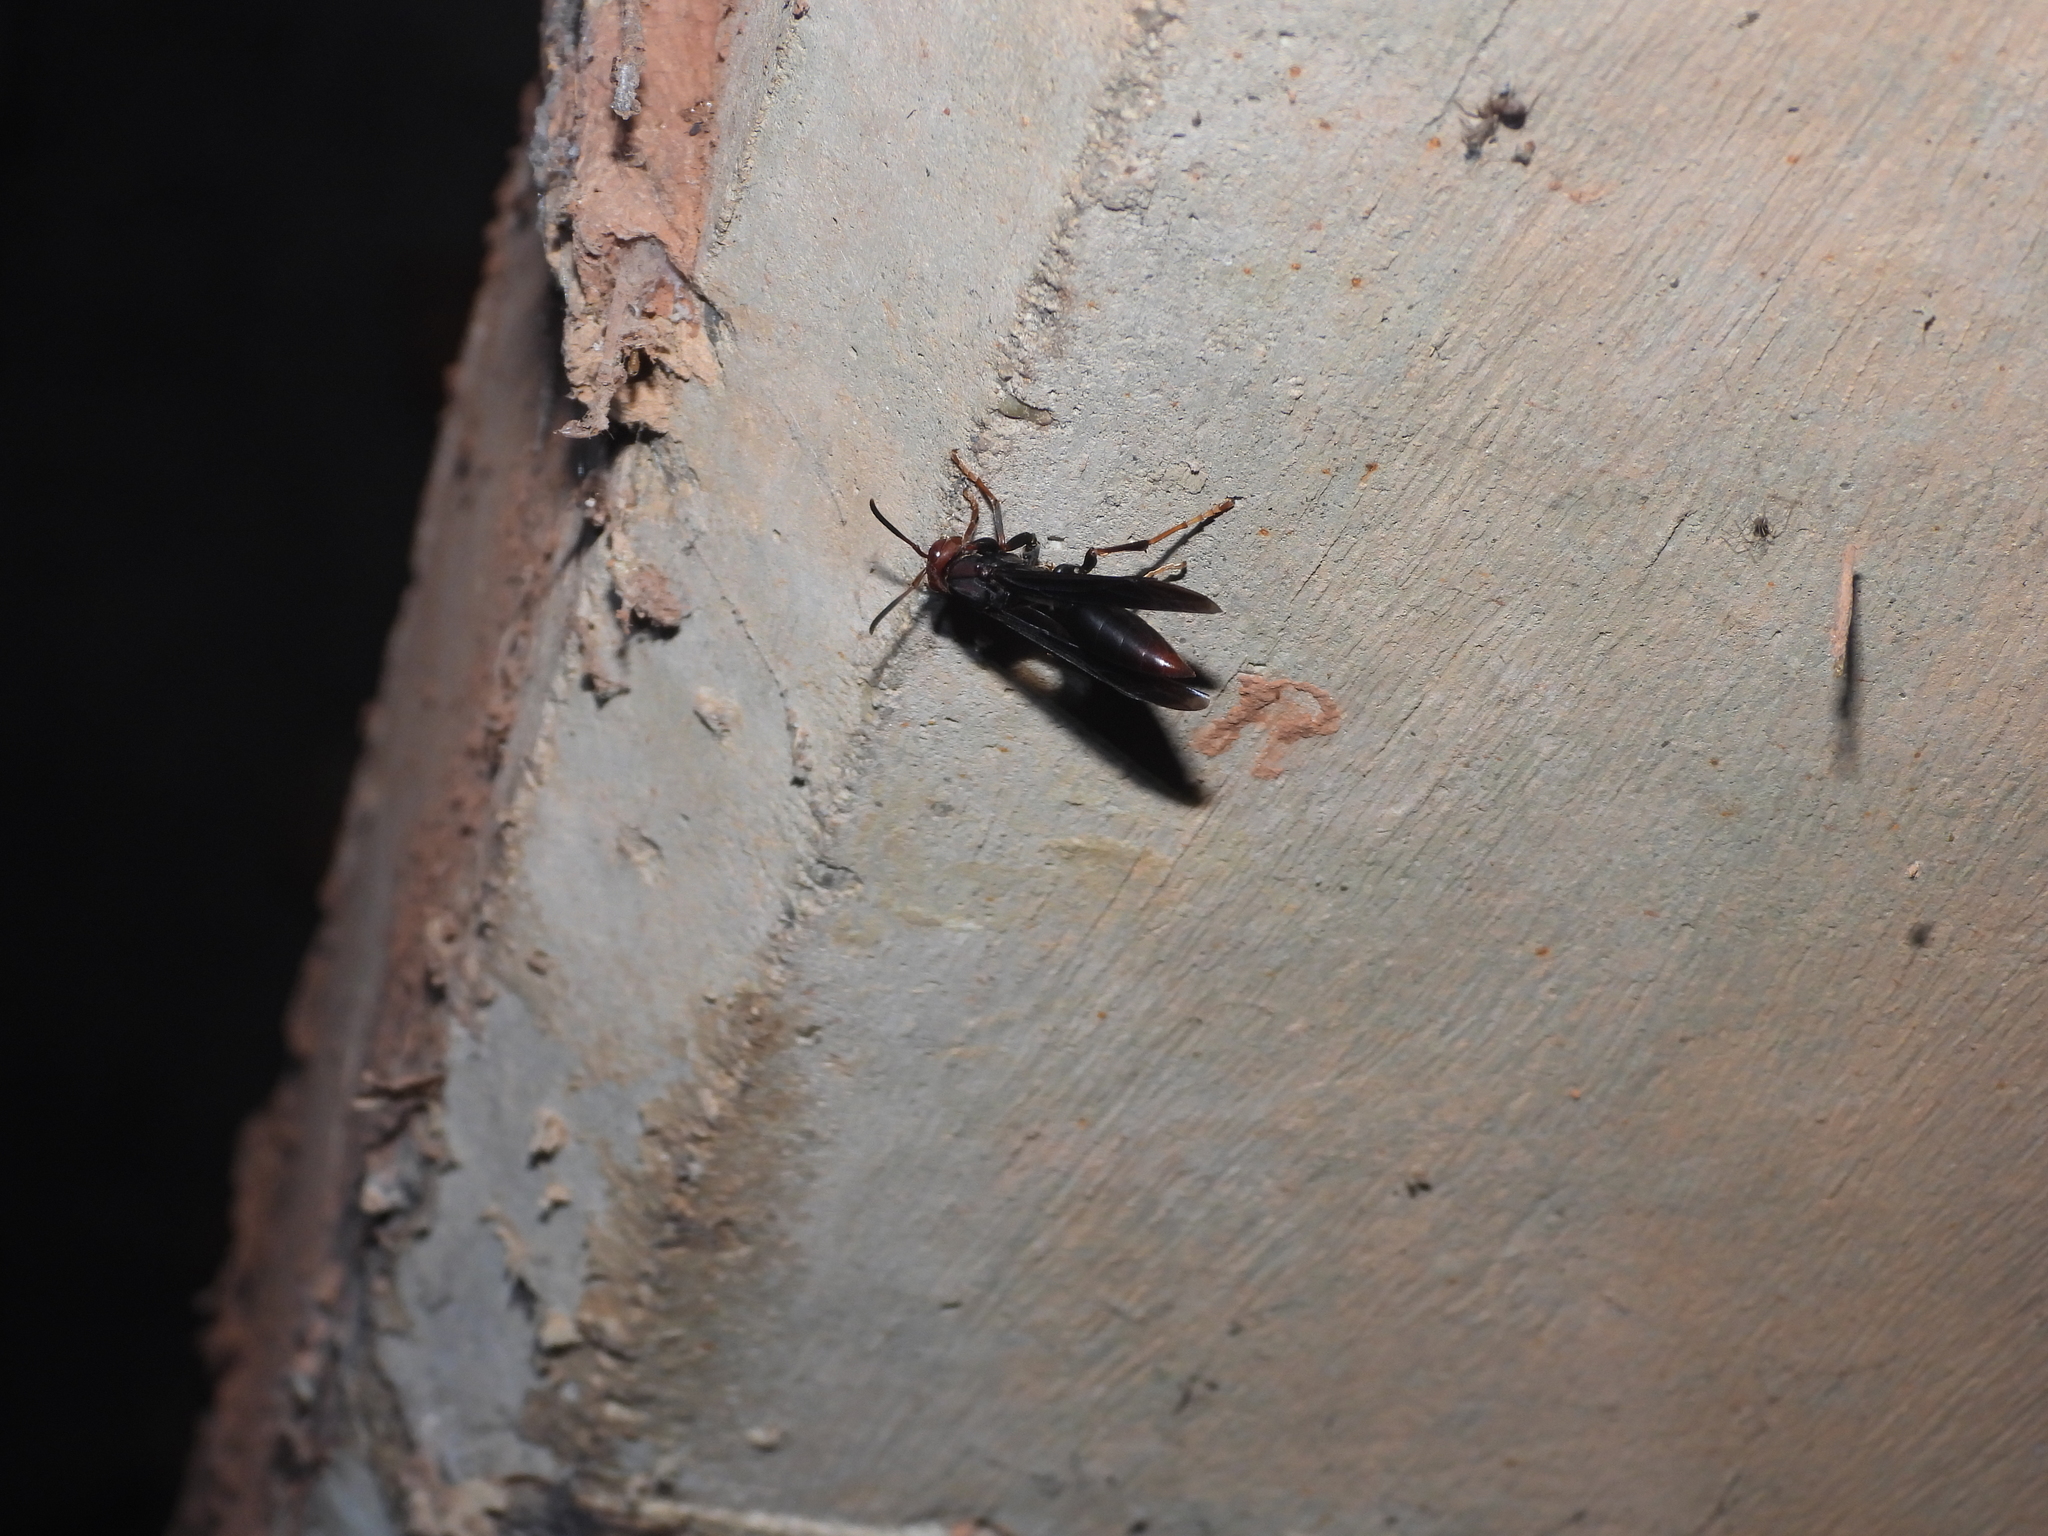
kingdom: Animalia
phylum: Arthropoda
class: Insecta
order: Hymenoptera
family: Eumenidae
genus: Polistes
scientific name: Polistes ferreri
